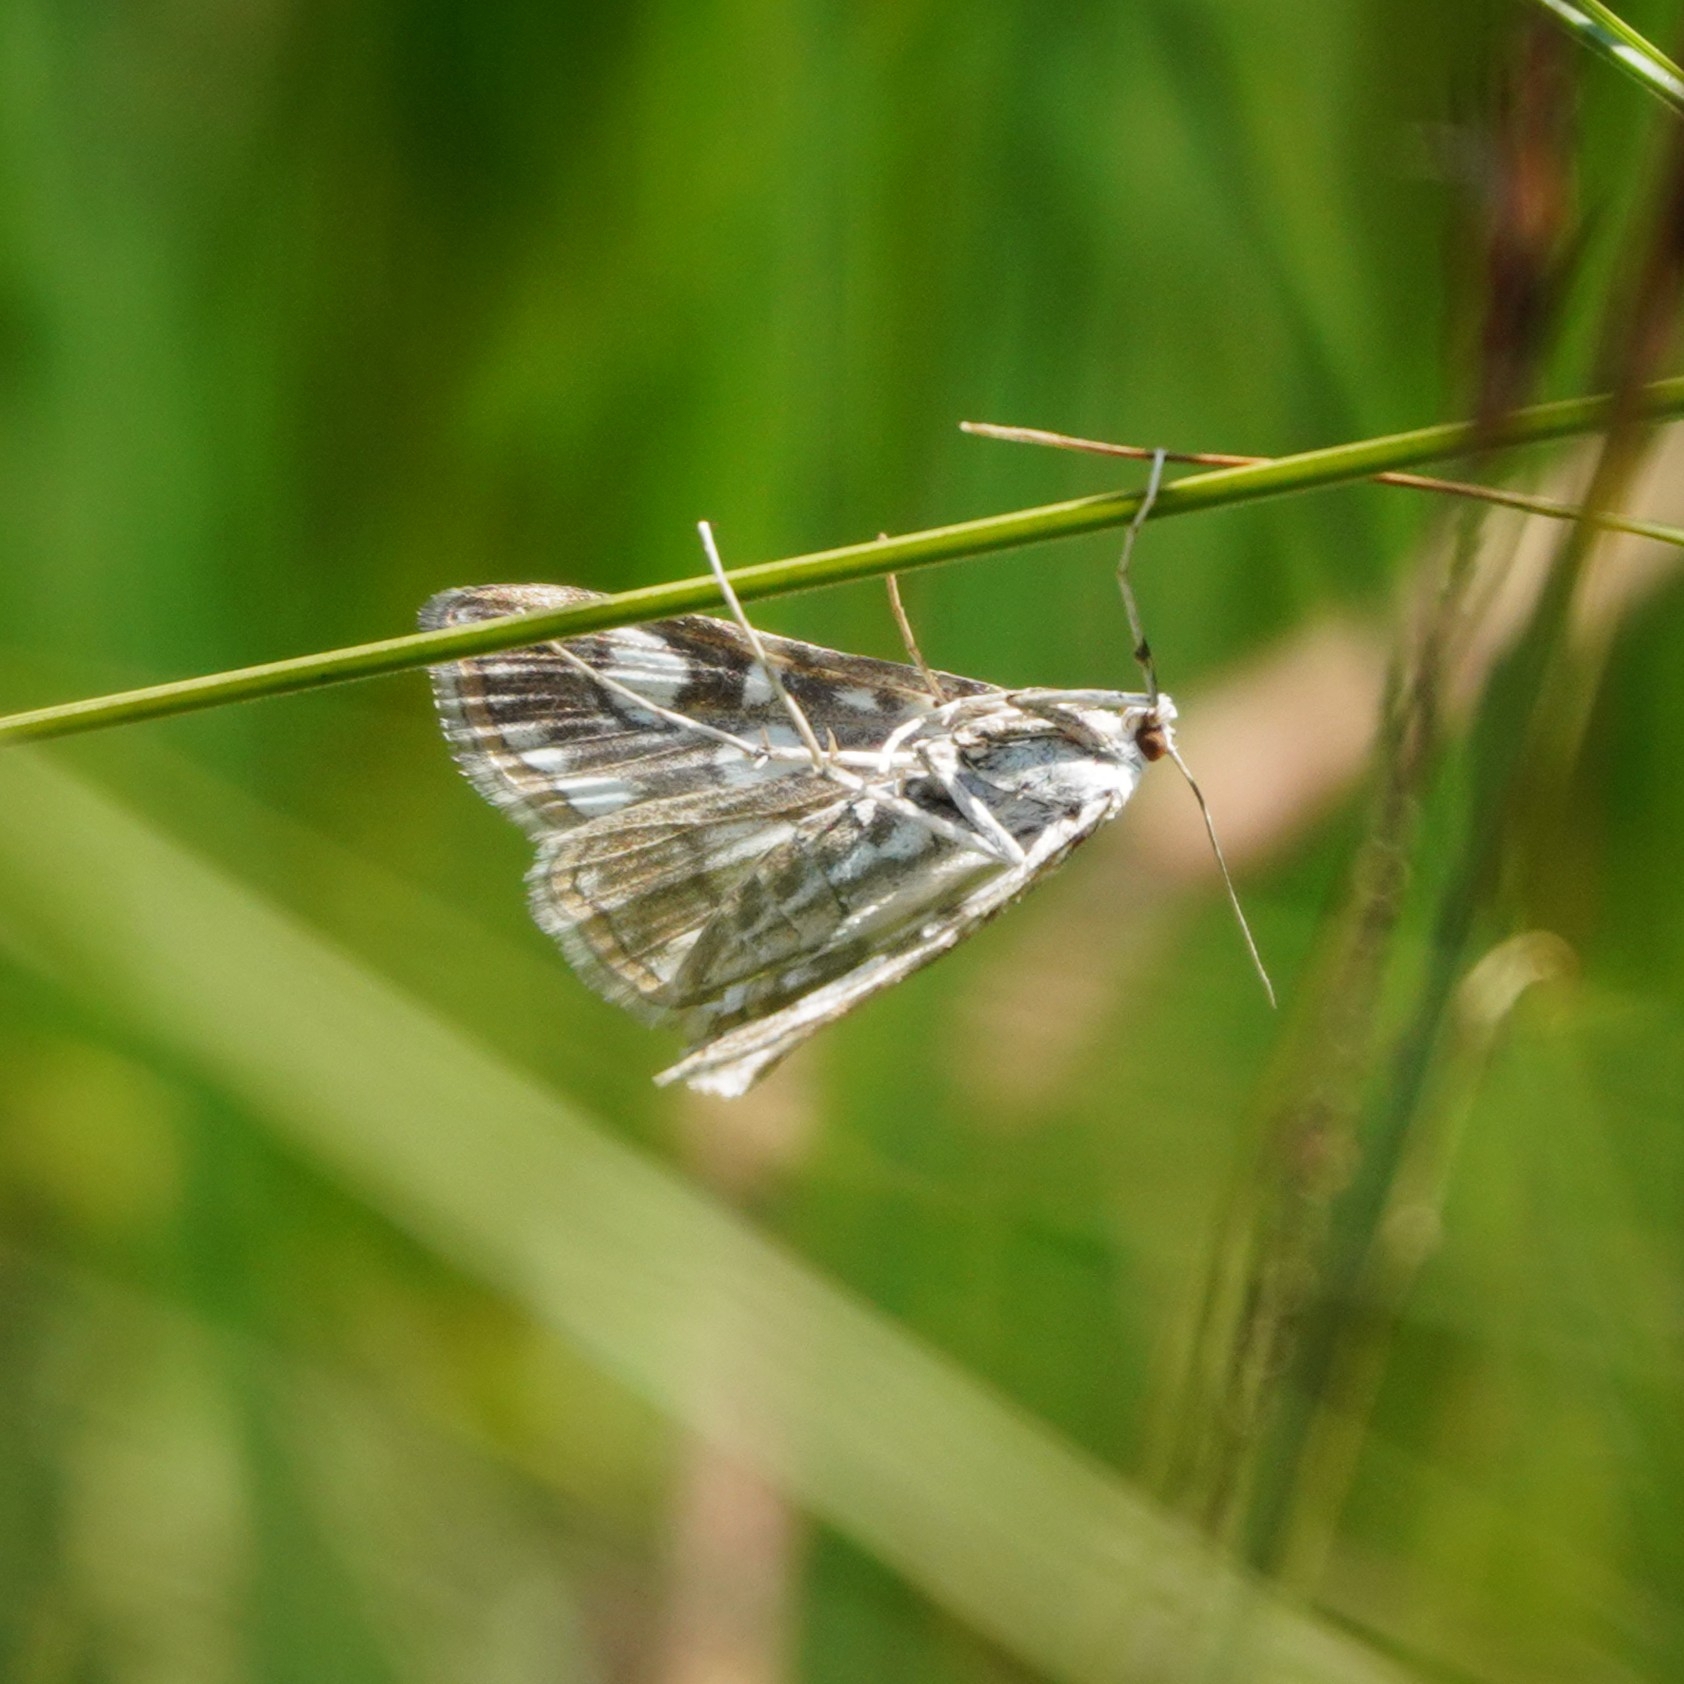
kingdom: Animalia
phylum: Arthropoda
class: Insecta
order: Lepidoptera
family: Crambidae
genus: Elophila
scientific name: Elophila nymphaeata
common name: Brown china-mark
